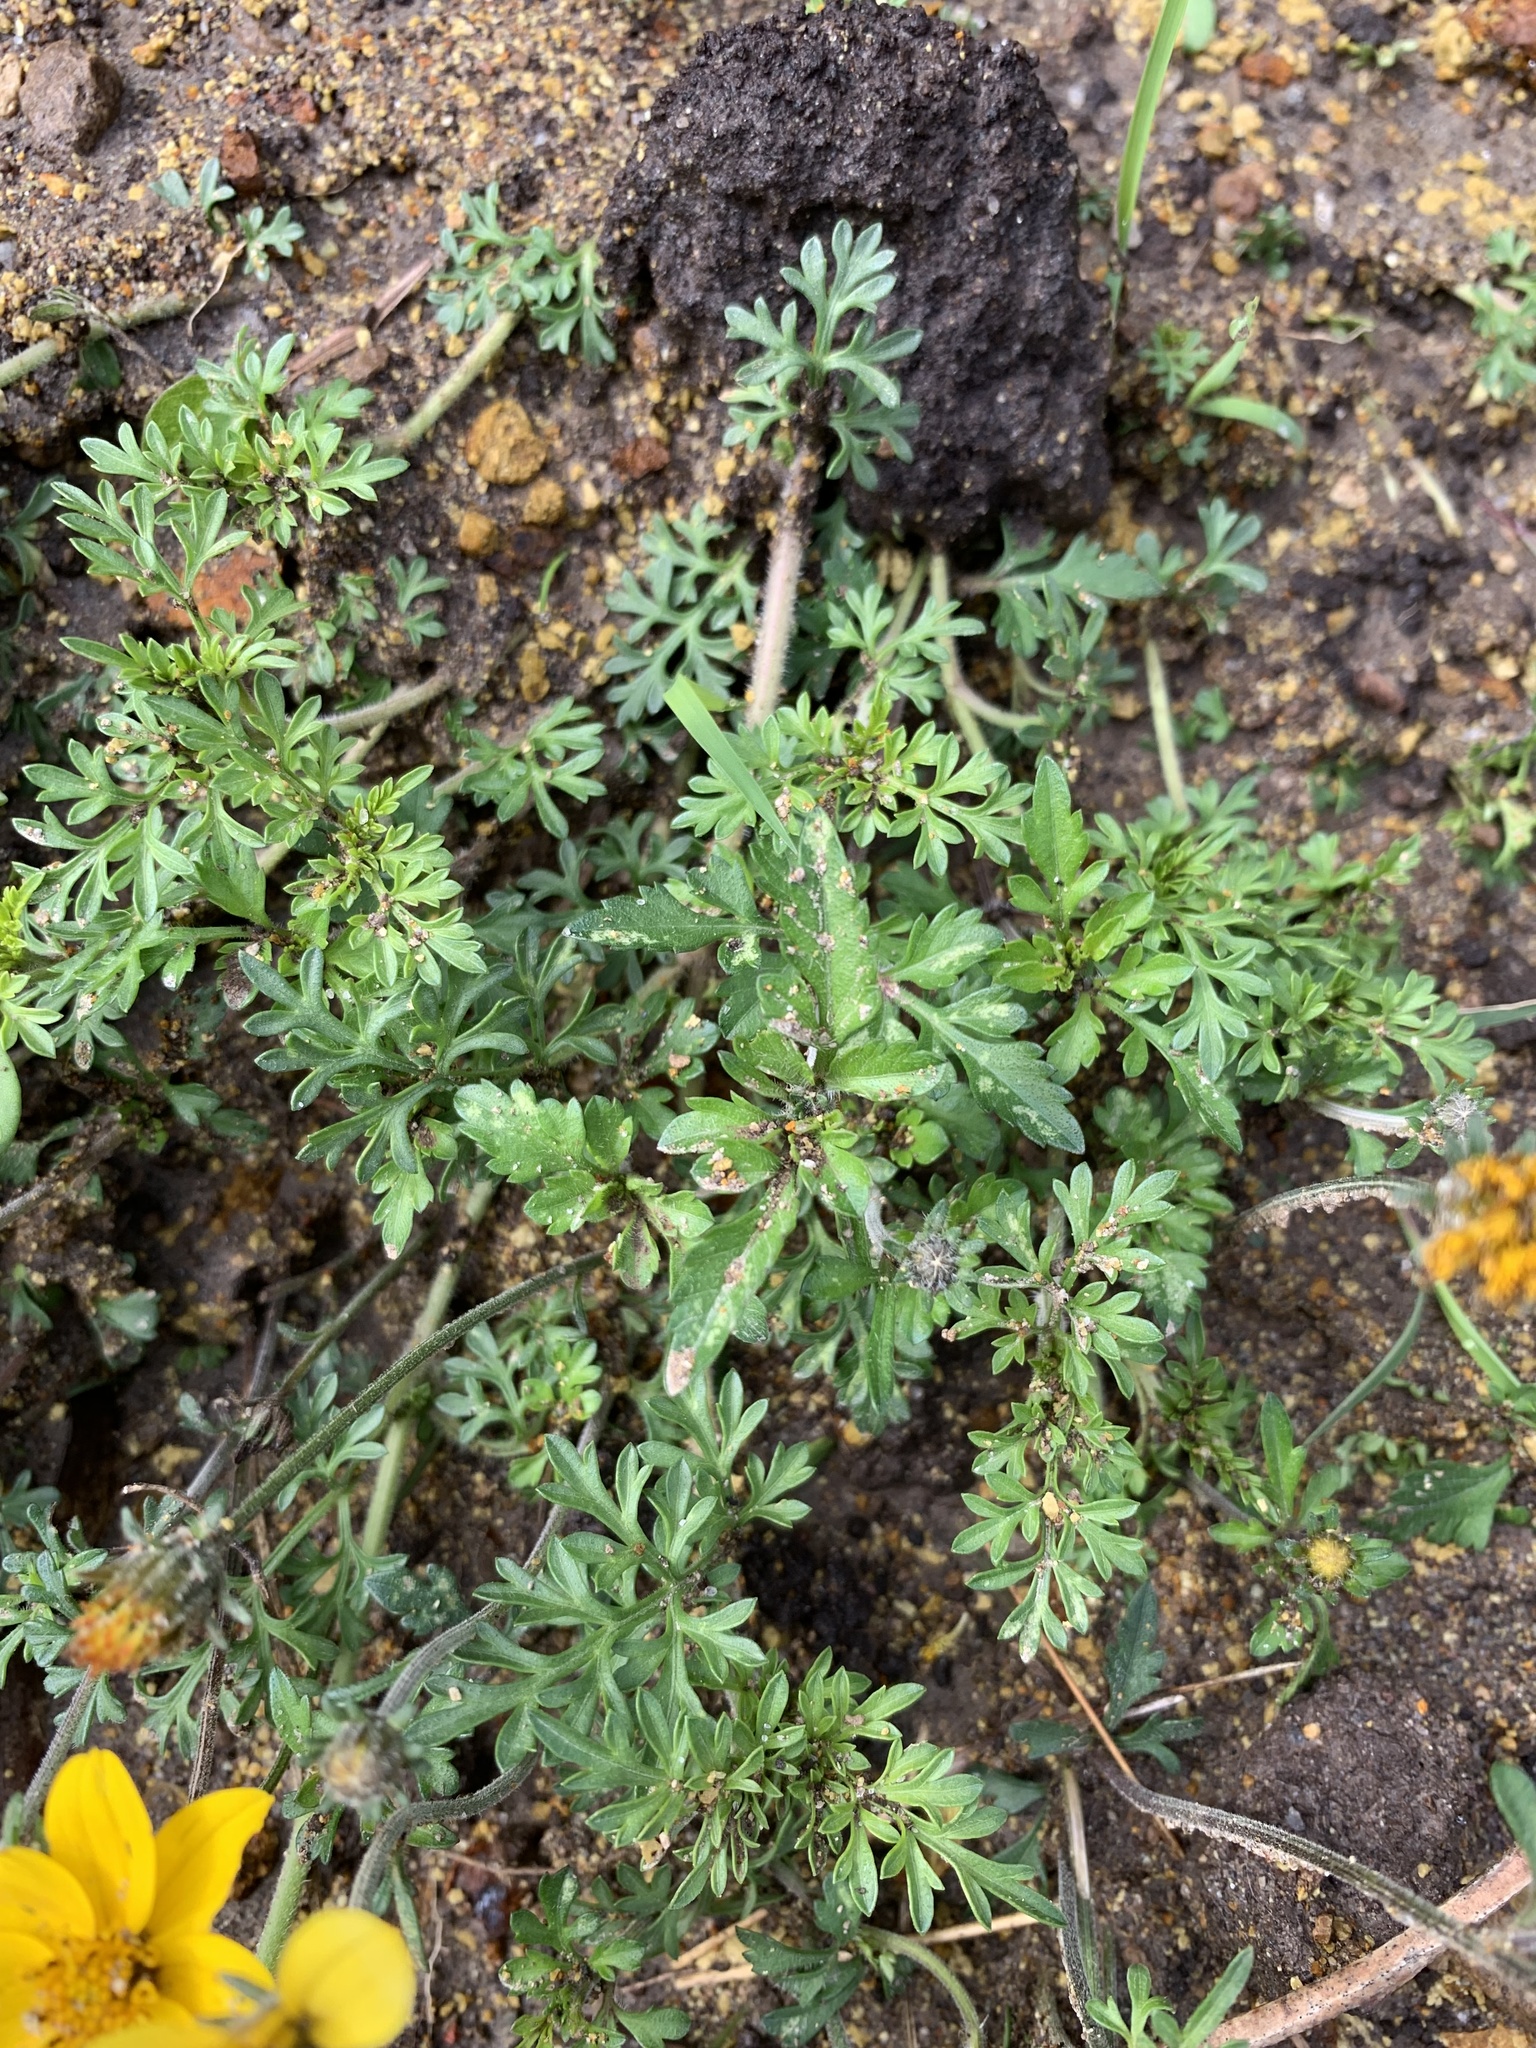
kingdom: Plantae
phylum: Tracheophyta
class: Magnoliopsida
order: Asterales
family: Asteraceae
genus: Bidens
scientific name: Bidens andicola
